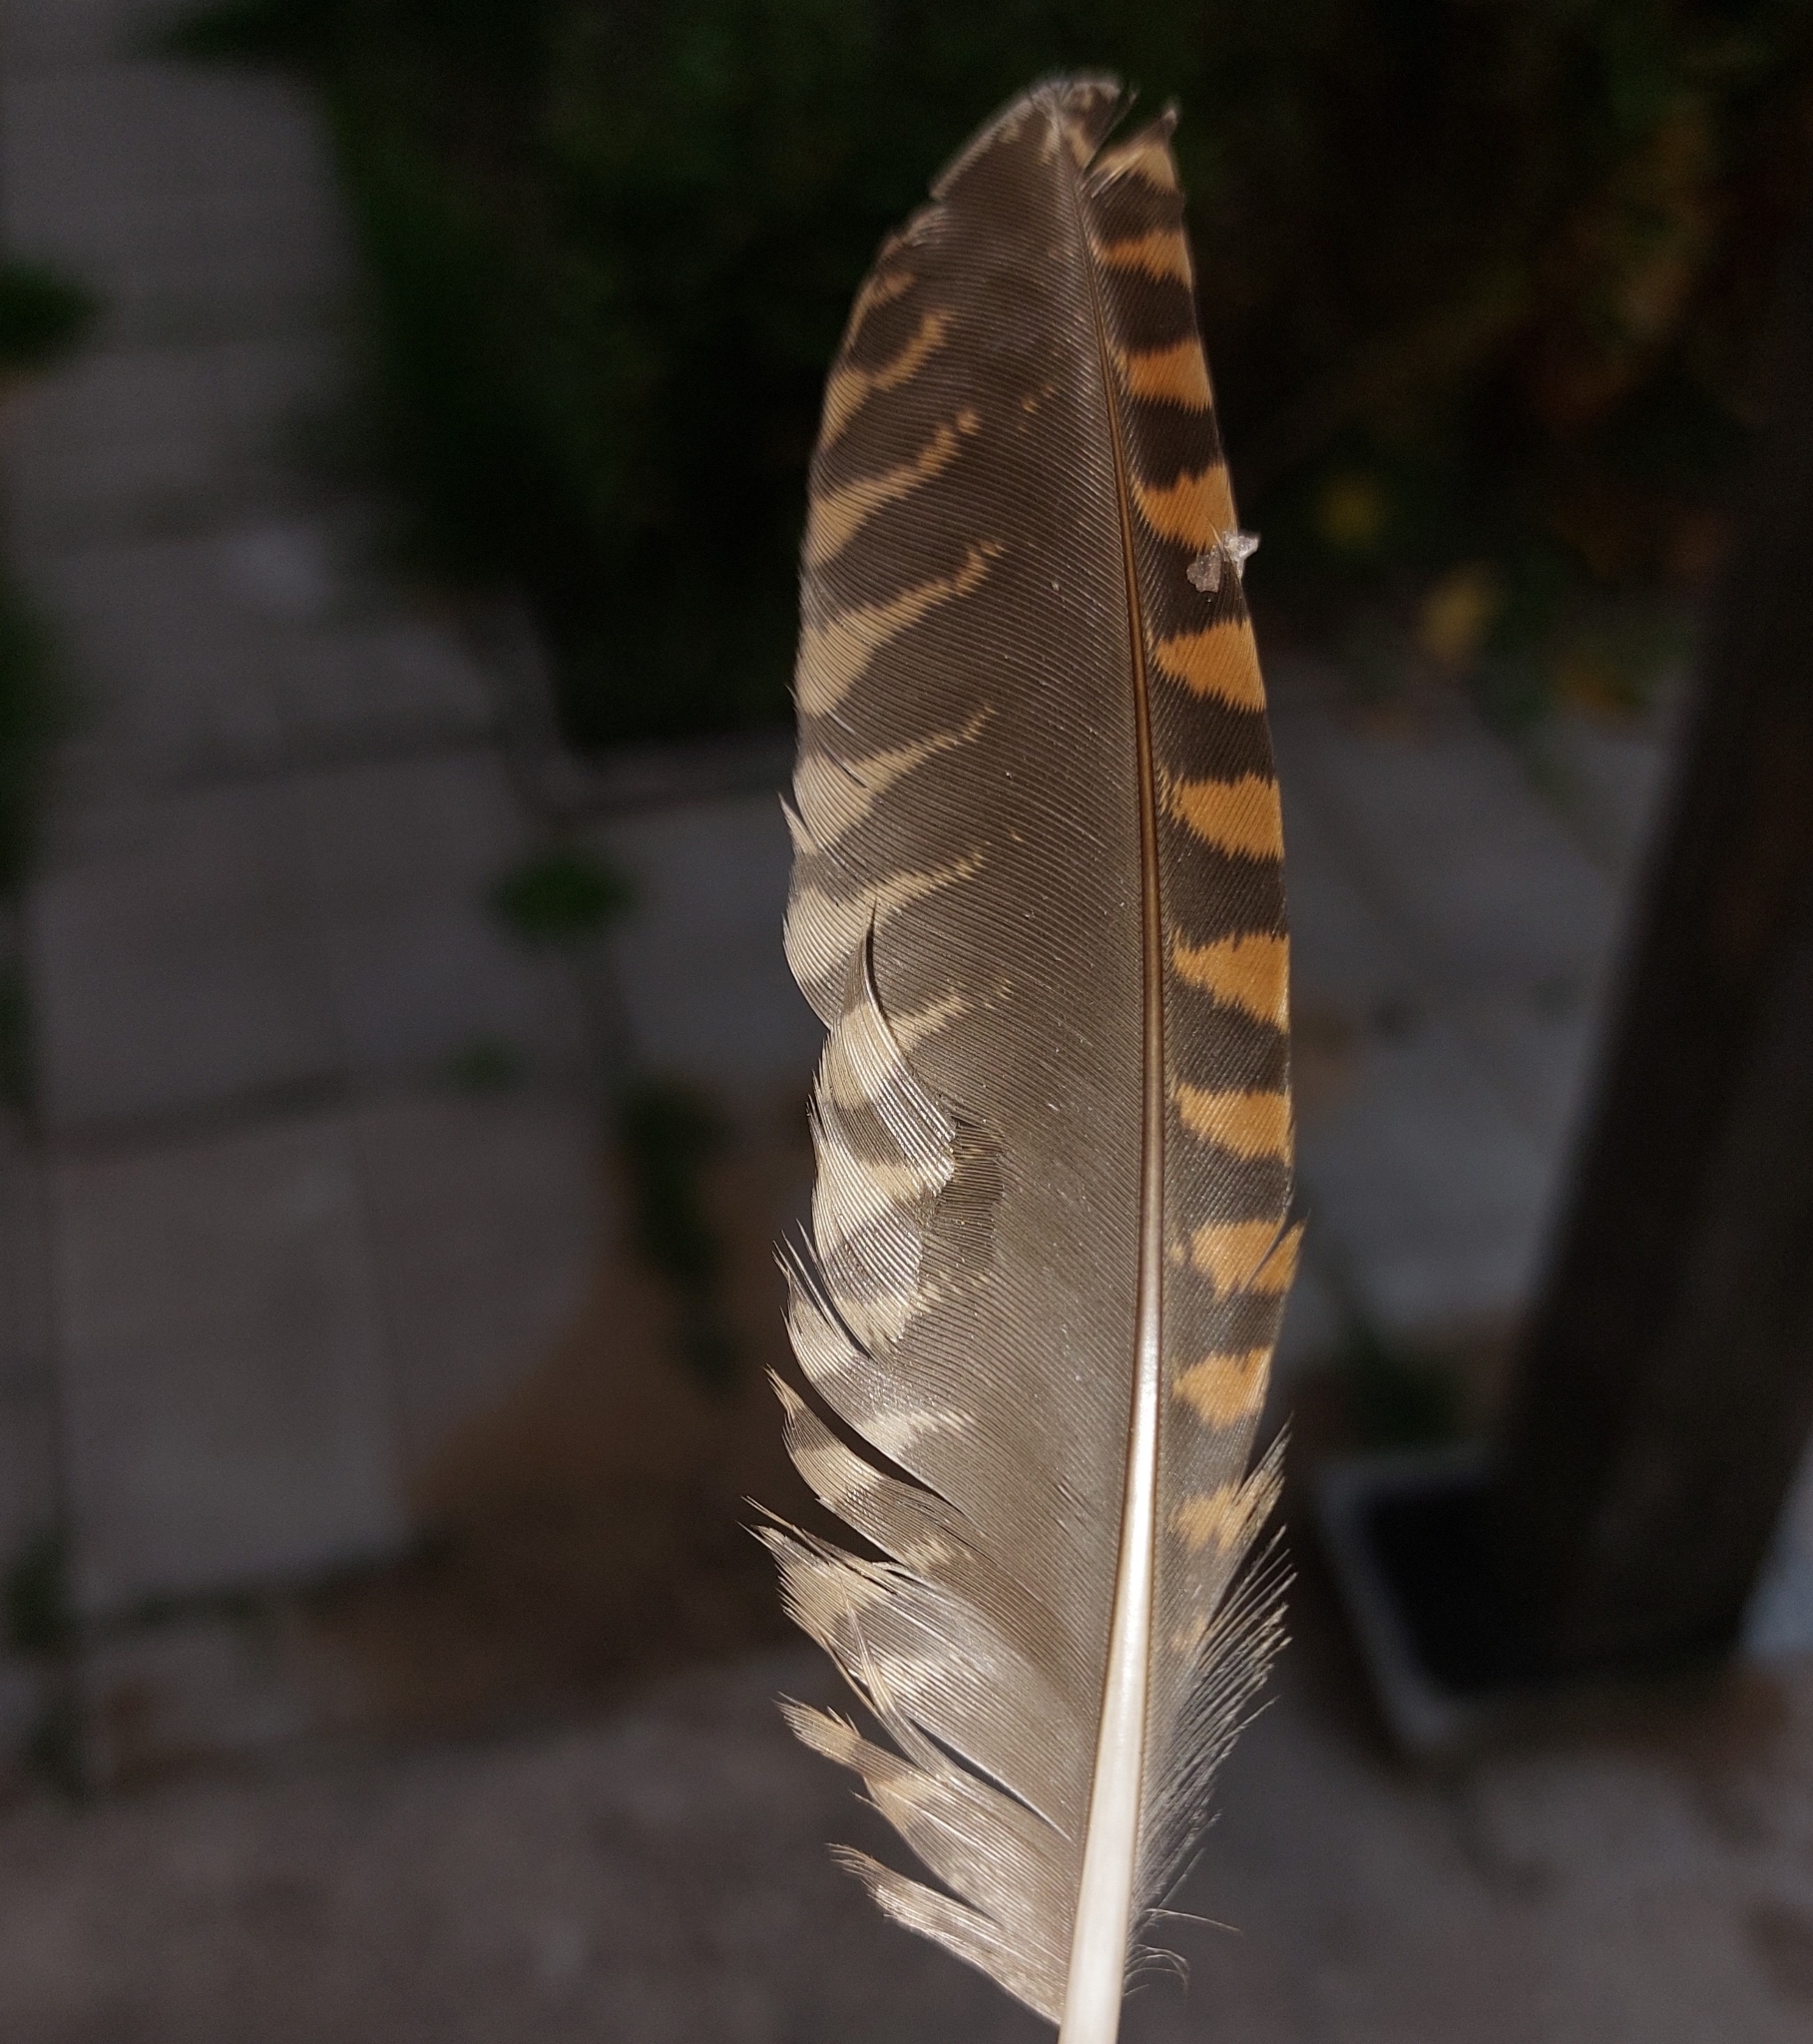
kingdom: Animalia
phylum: Chordata
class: Aves
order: Charadriiformes
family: Scolopacidae
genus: Scolopax
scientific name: Scolopax rusticola
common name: Eurasian woodcock
